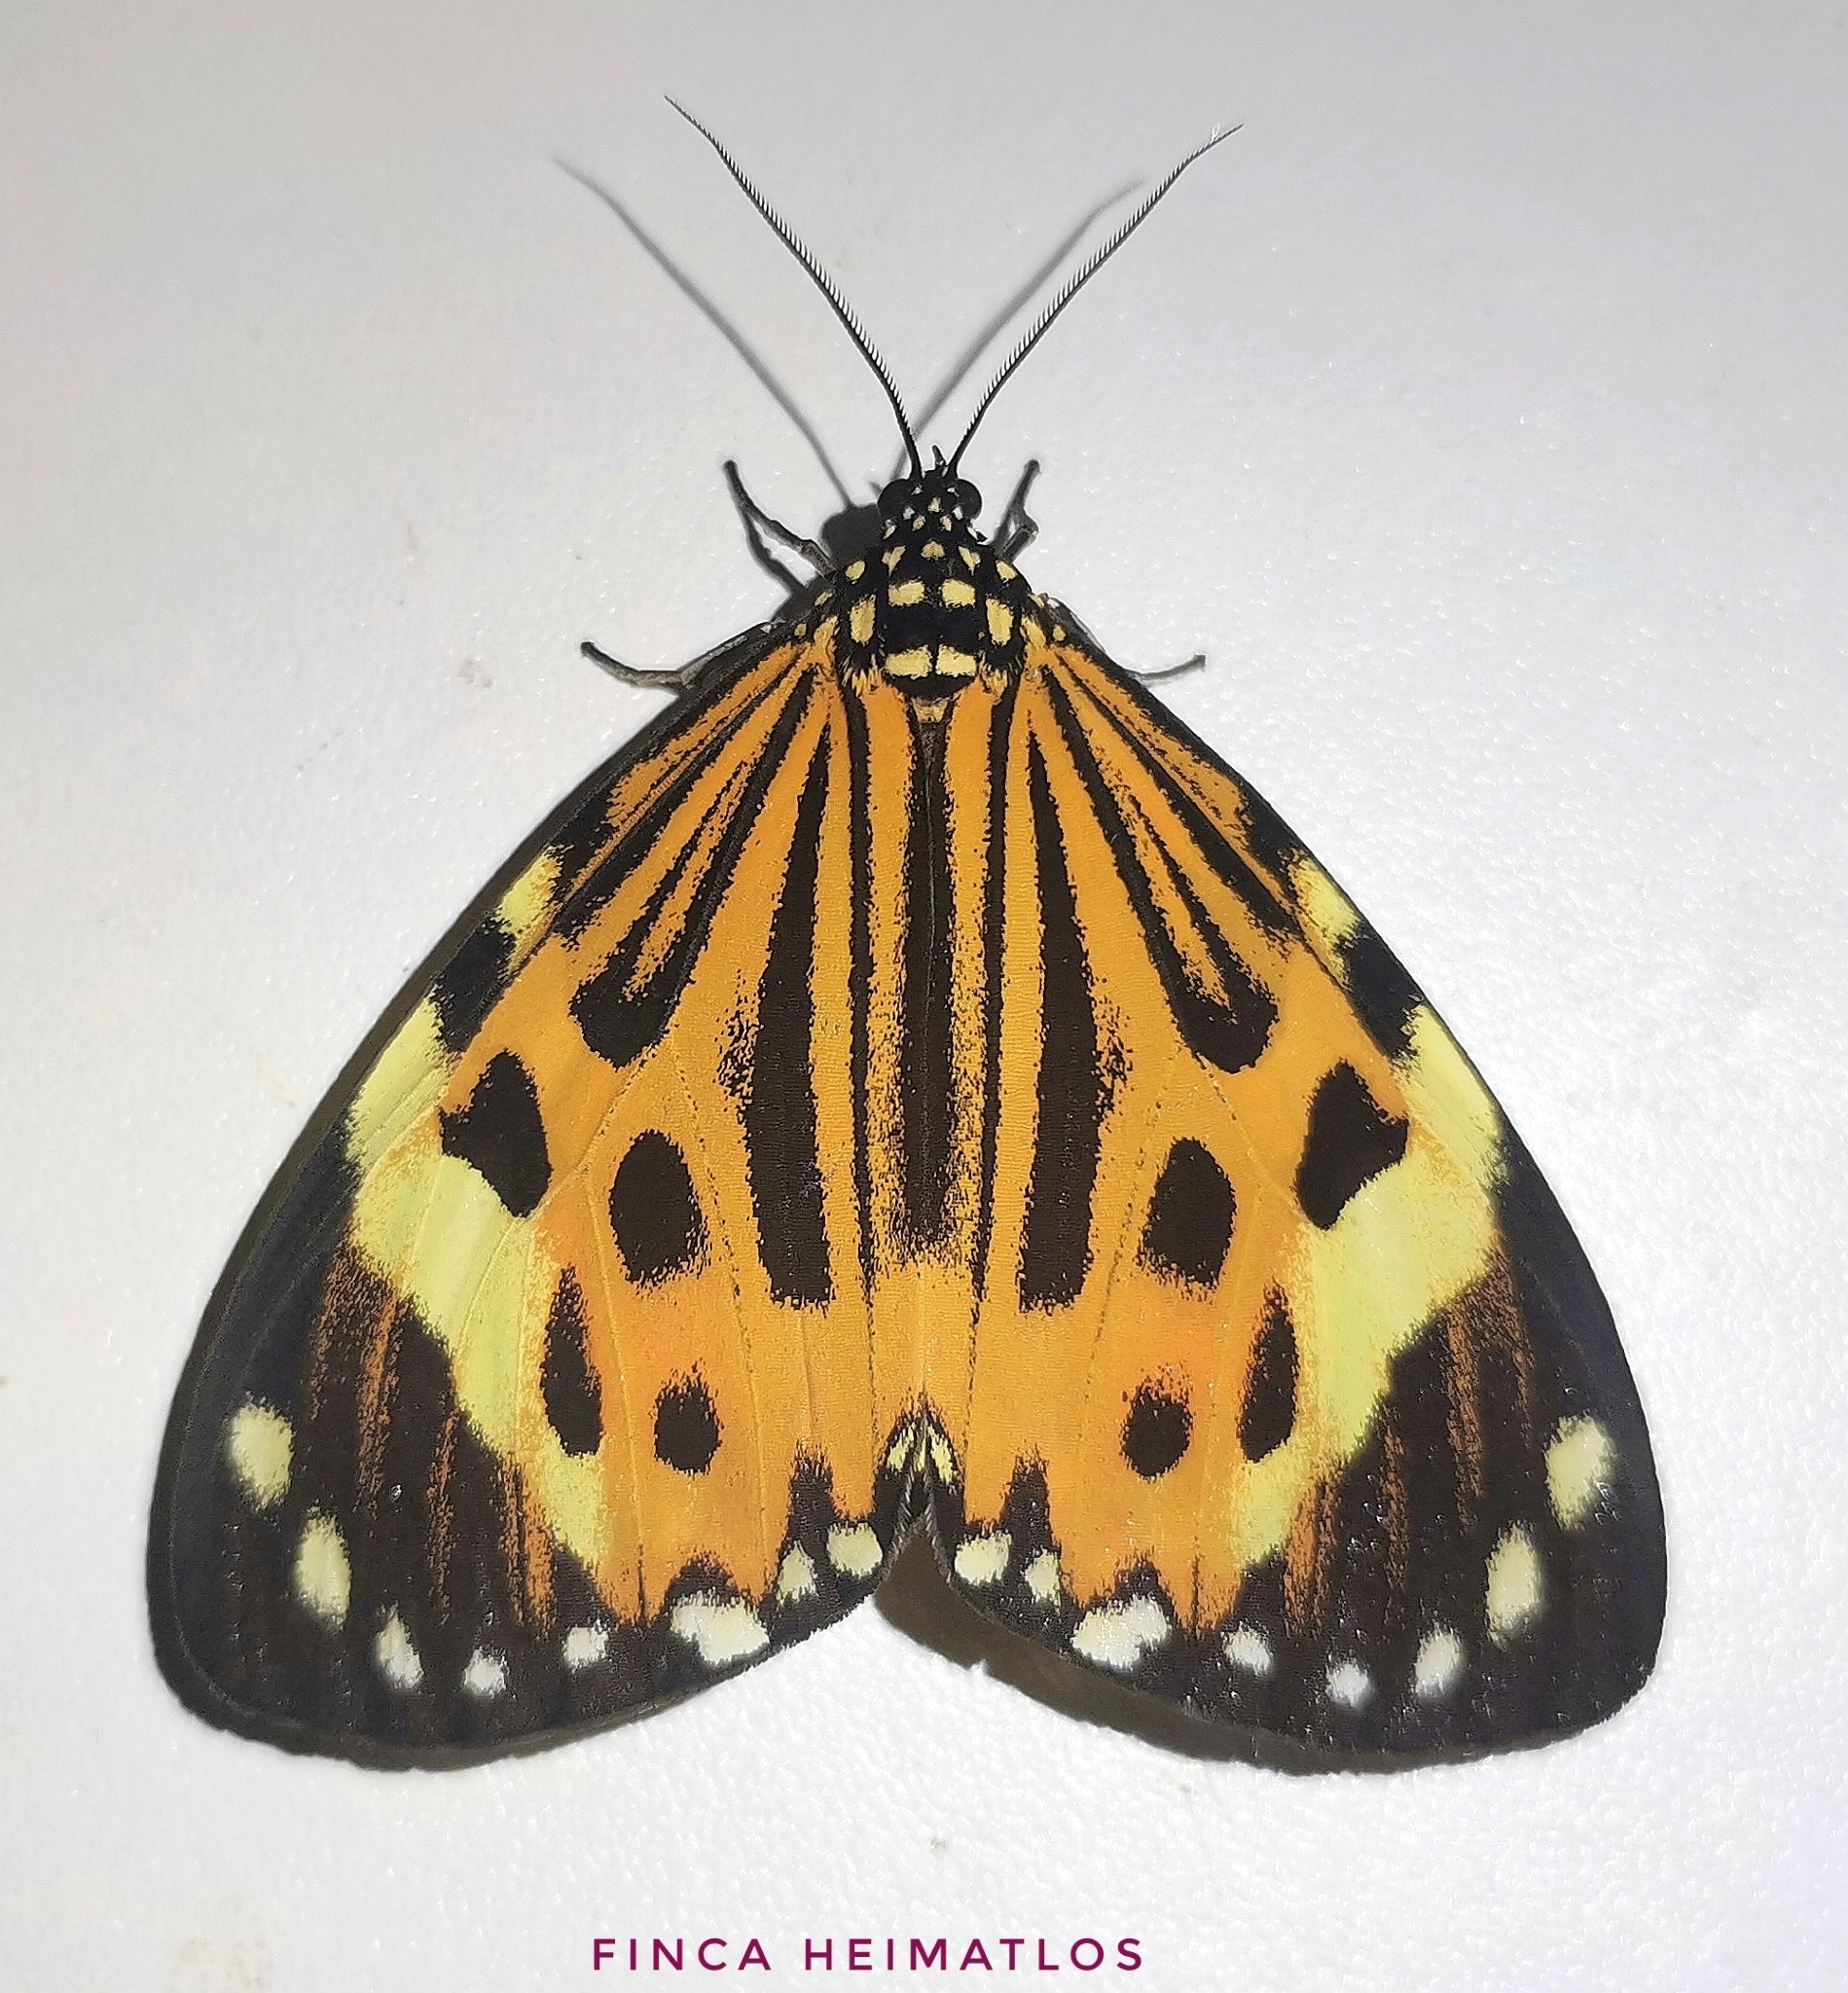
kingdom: Animalia
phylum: Arthropoda
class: Insecta
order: Lepidoptera
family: Erebidae
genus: Chetone
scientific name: Chetone histrio
